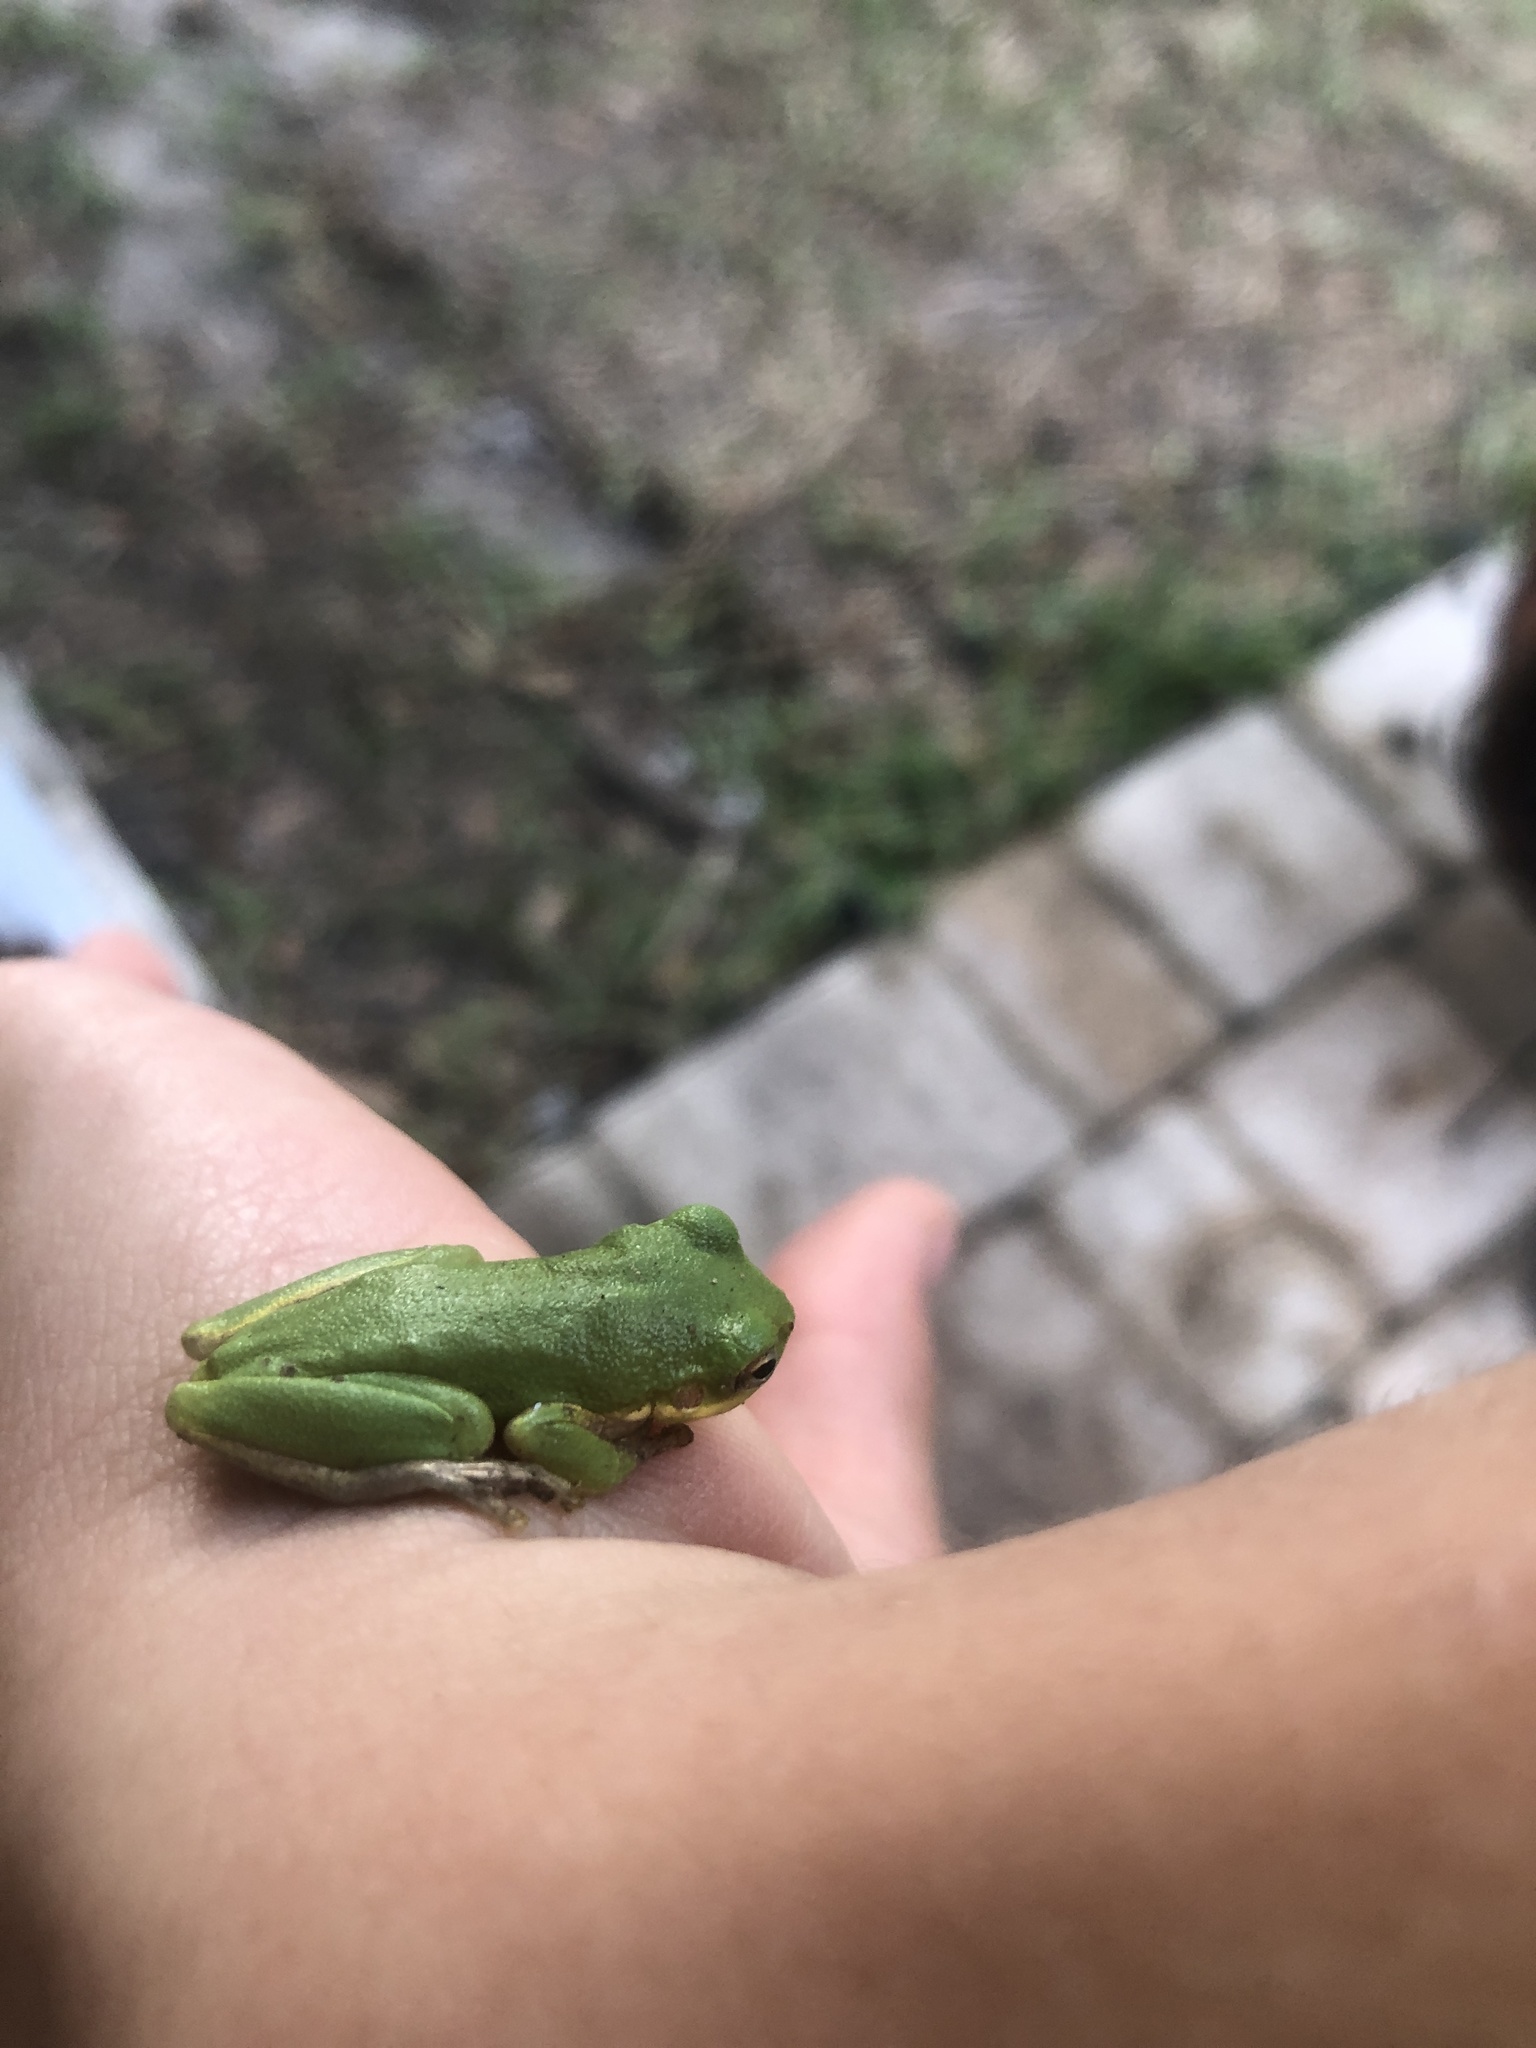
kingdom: Animalia
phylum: Chordata
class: Amphibia
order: Anura
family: Hylidae
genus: Dryophytes
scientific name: Dryophytes cinereus
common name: Green treefrog
